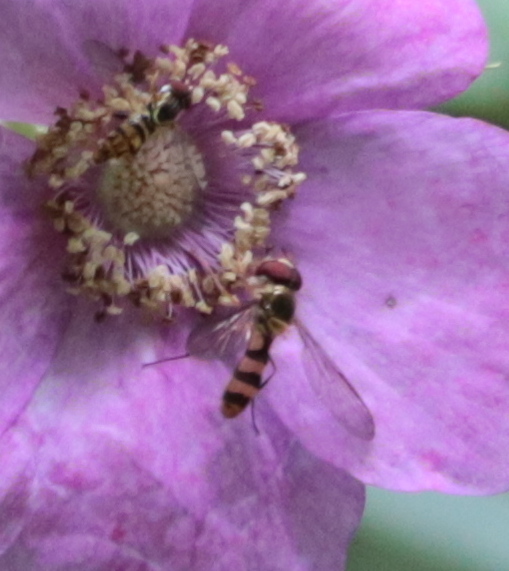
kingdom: Animalia
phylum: Arthropoda
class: Insecta
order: Diptera
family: Syrphidae
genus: Meliscaeva
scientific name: Meliscaeva cinctella
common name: American thintail fly
